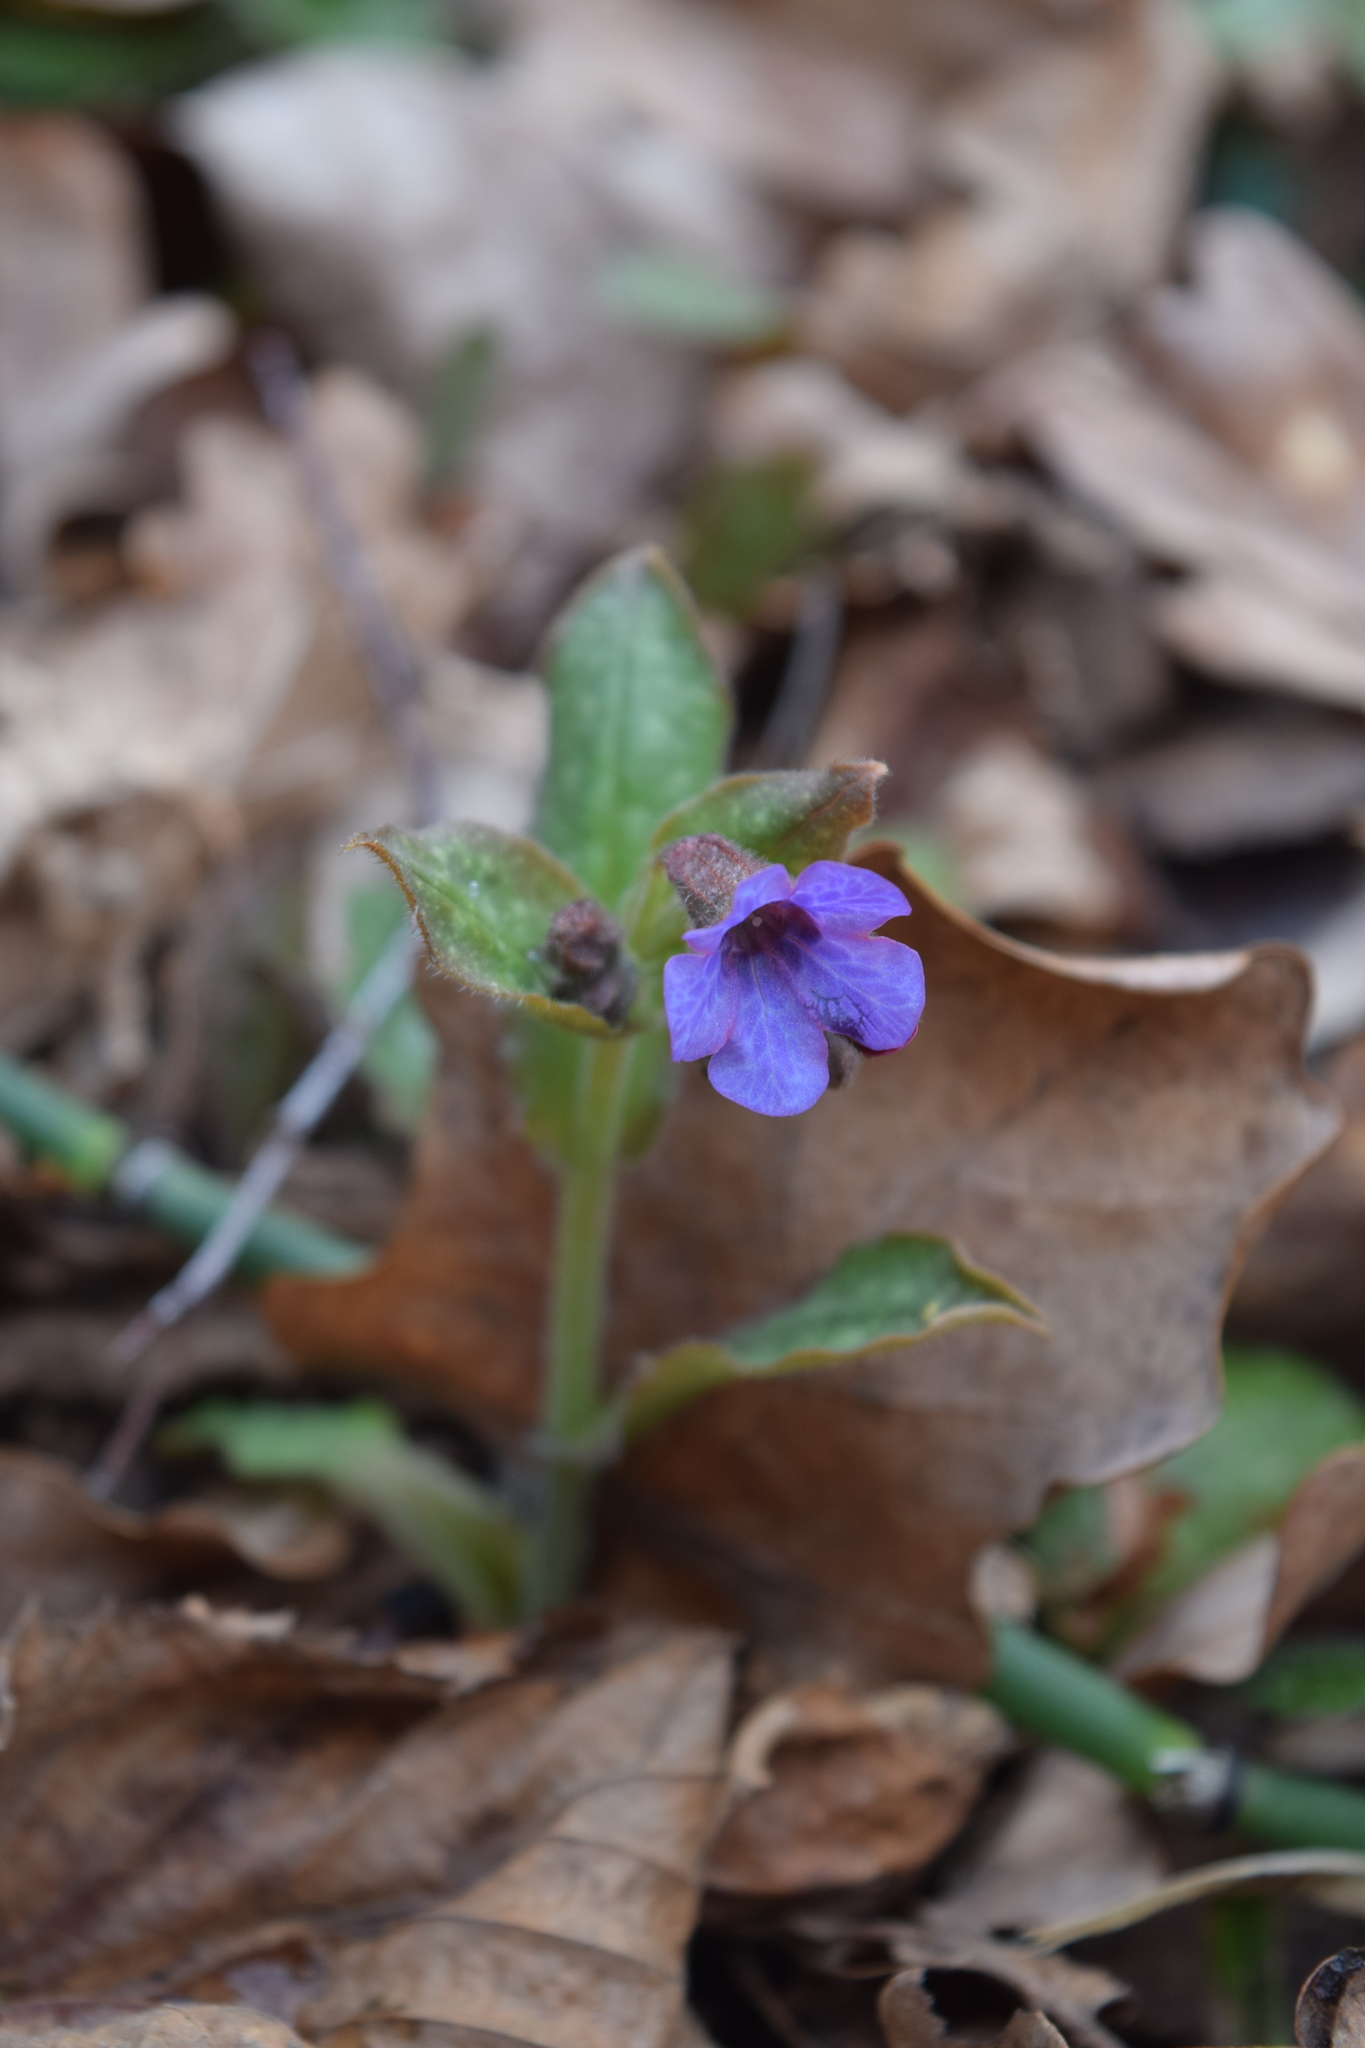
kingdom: Plantae
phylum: Tracheophyta
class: Magnoliopsida
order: Boraginales
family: Boraginaceae
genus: Pulmonaria
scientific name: Pulmonaria obscura
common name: Suffolk lungwort
